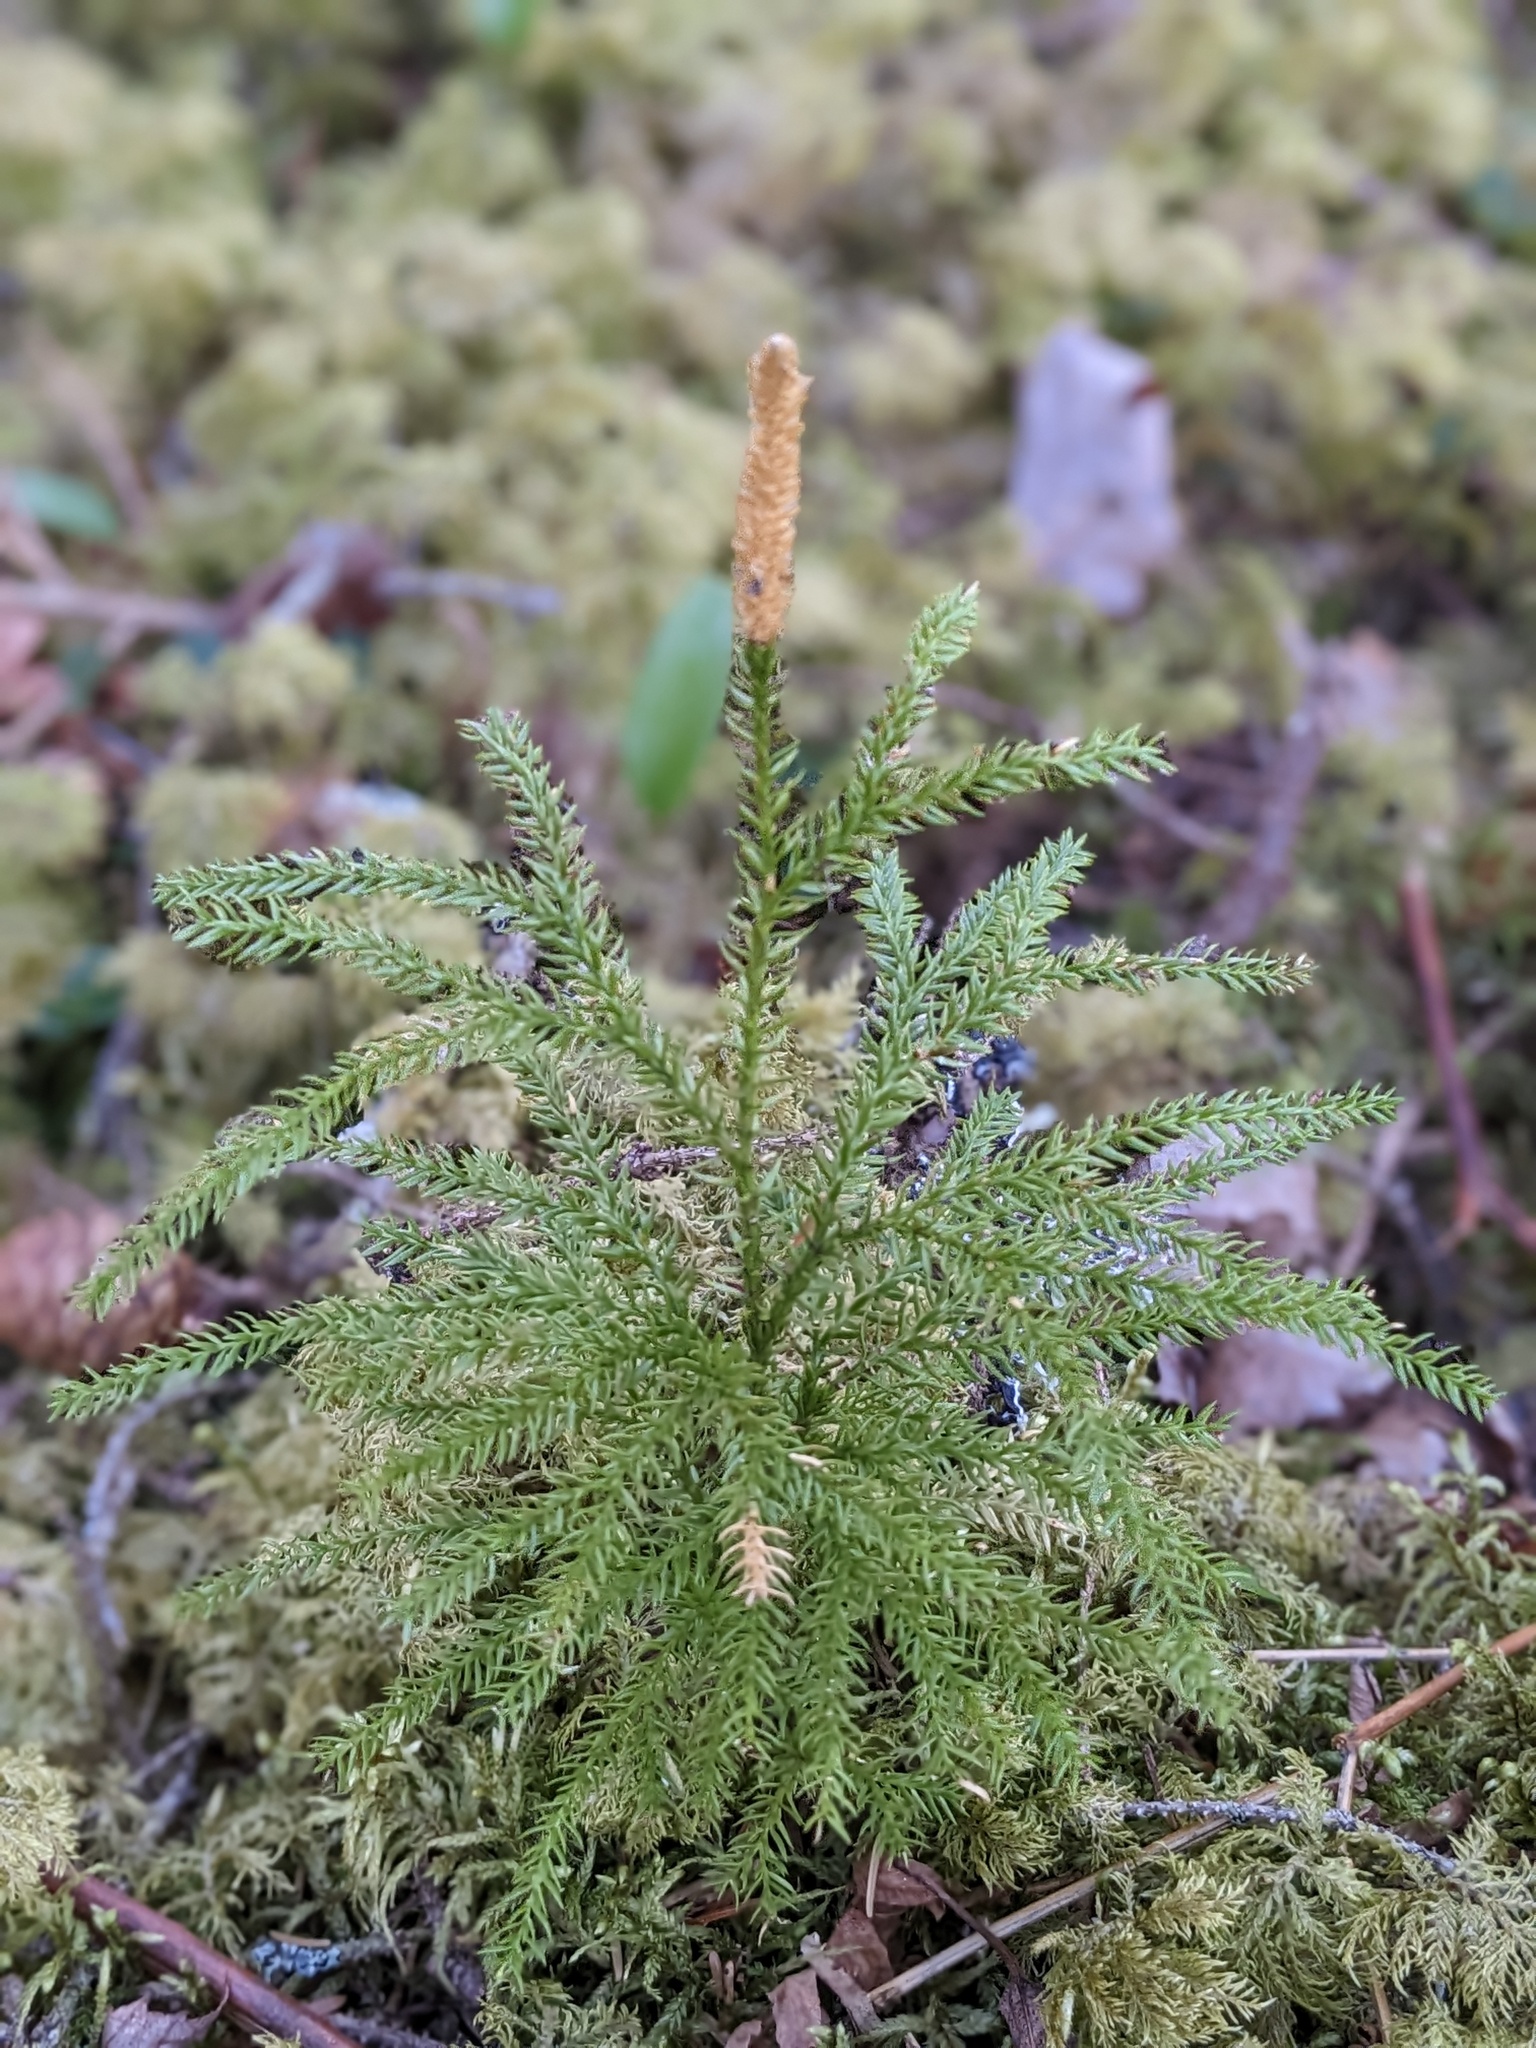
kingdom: Plantae
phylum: Tracheophyta
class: Lycopodiopsida
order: Lycopodiales
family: Lycopodiaceae
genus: Dendrolycopodium
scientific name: Dendrolycopodium dendroideum
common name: Northern tree-clubmoss
